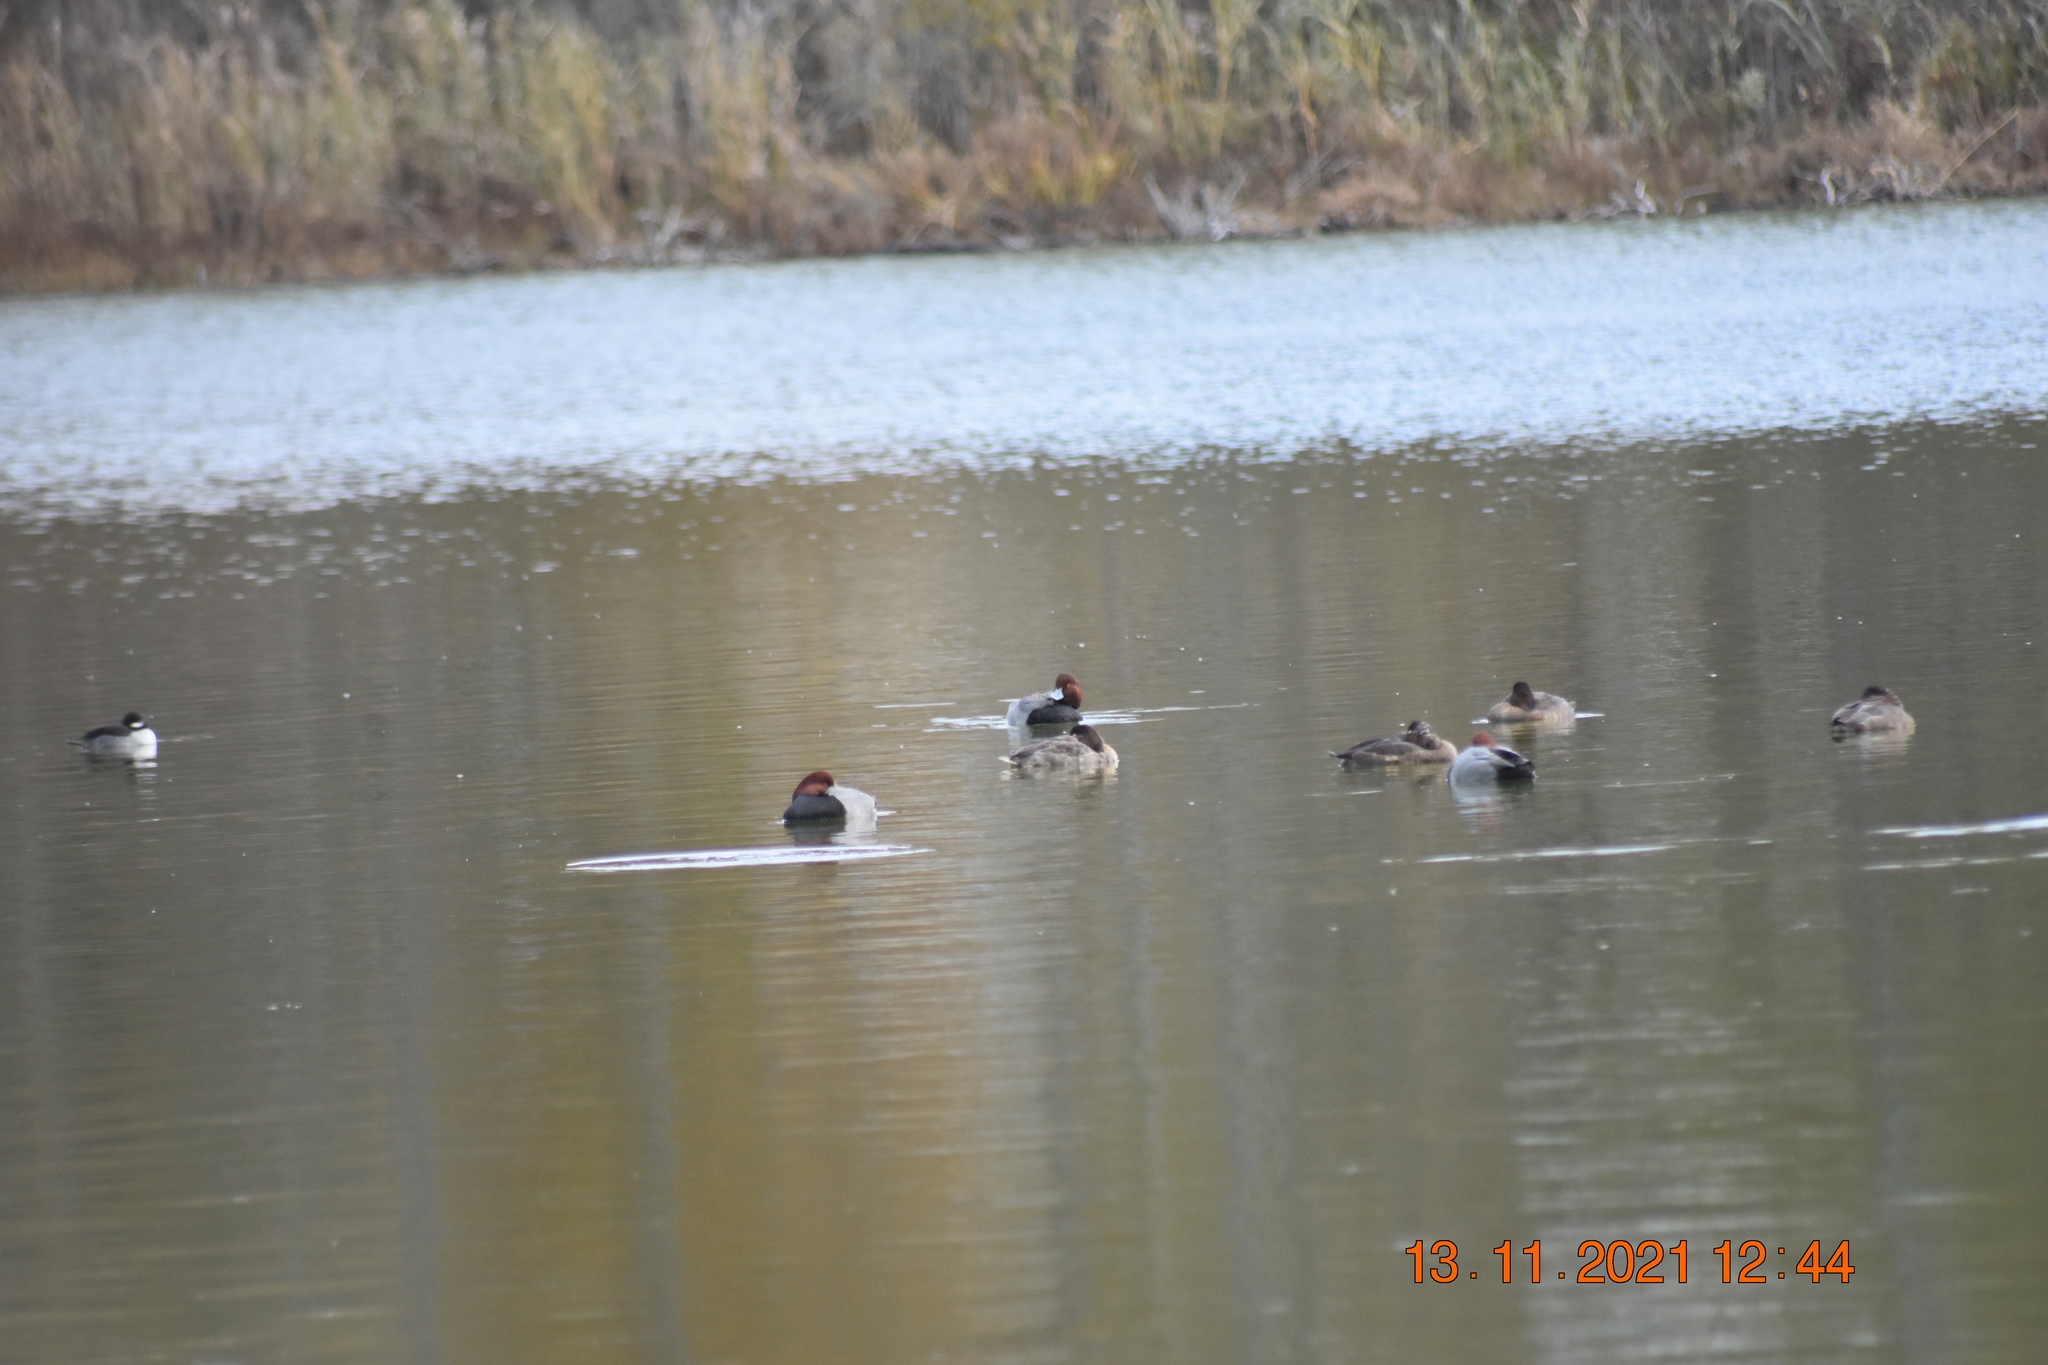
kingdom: Animalia
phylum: Chordata
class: Aves
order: Anseriformes
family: Anatidae
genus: Aythya
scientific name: Aythya americana
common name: Redhead
